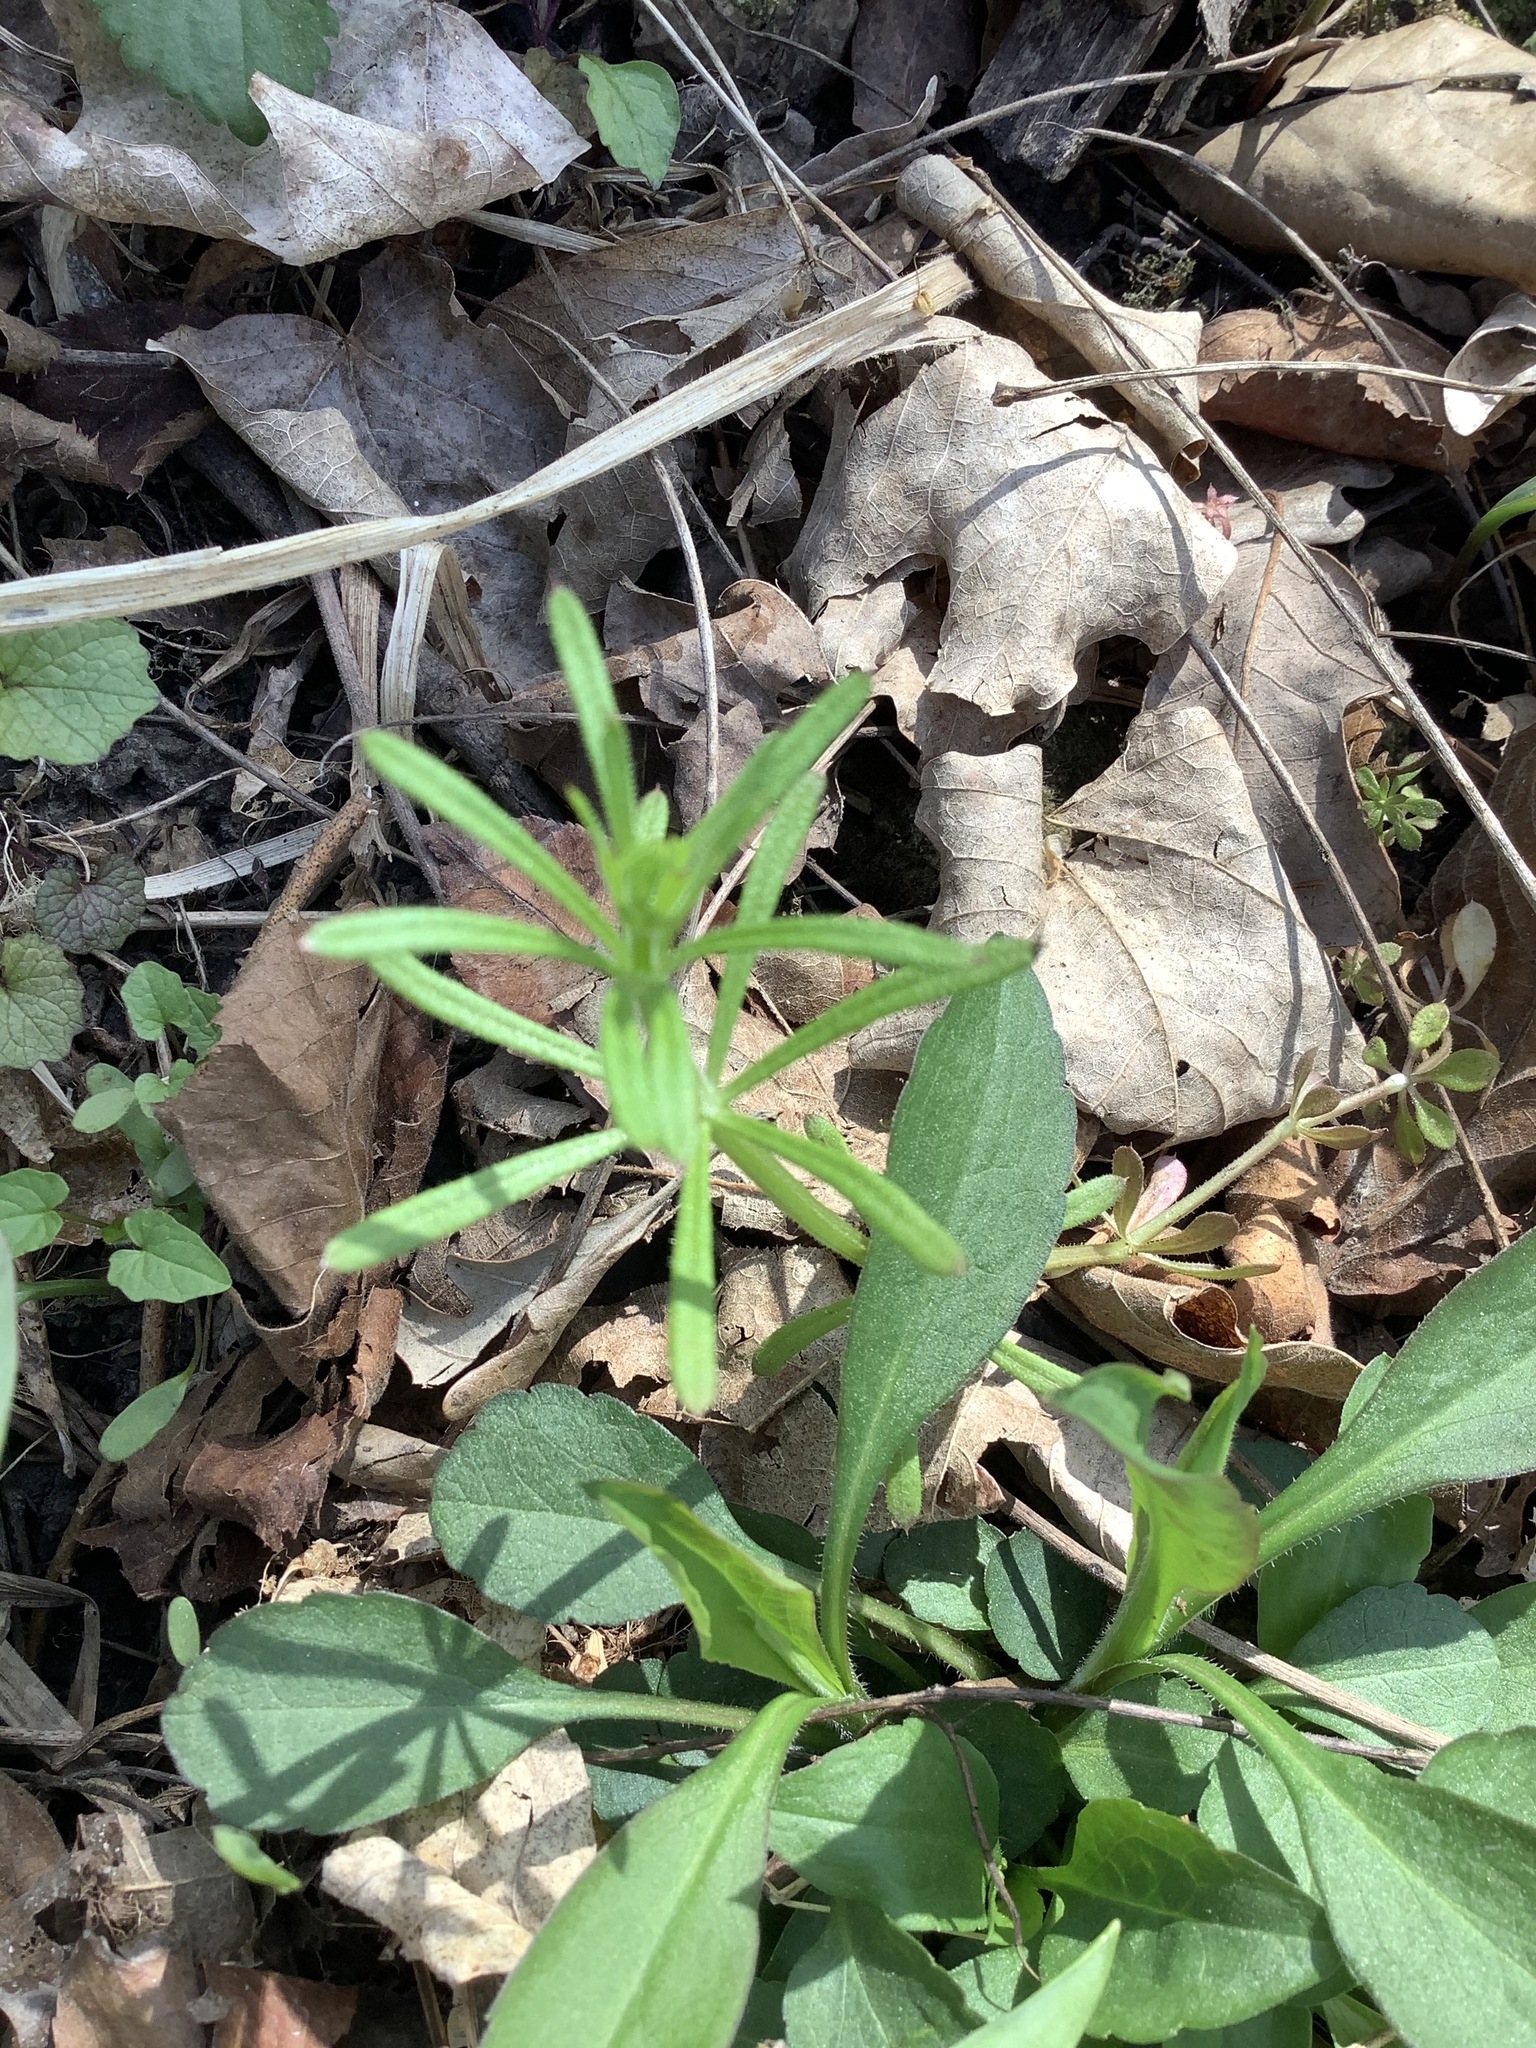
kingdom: Plantae
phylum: Tracheophyta
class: Magnoliopsida
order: Gentianales
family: Rubiaceae
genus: Galium
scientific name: Galium aparine
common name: Cleavers
